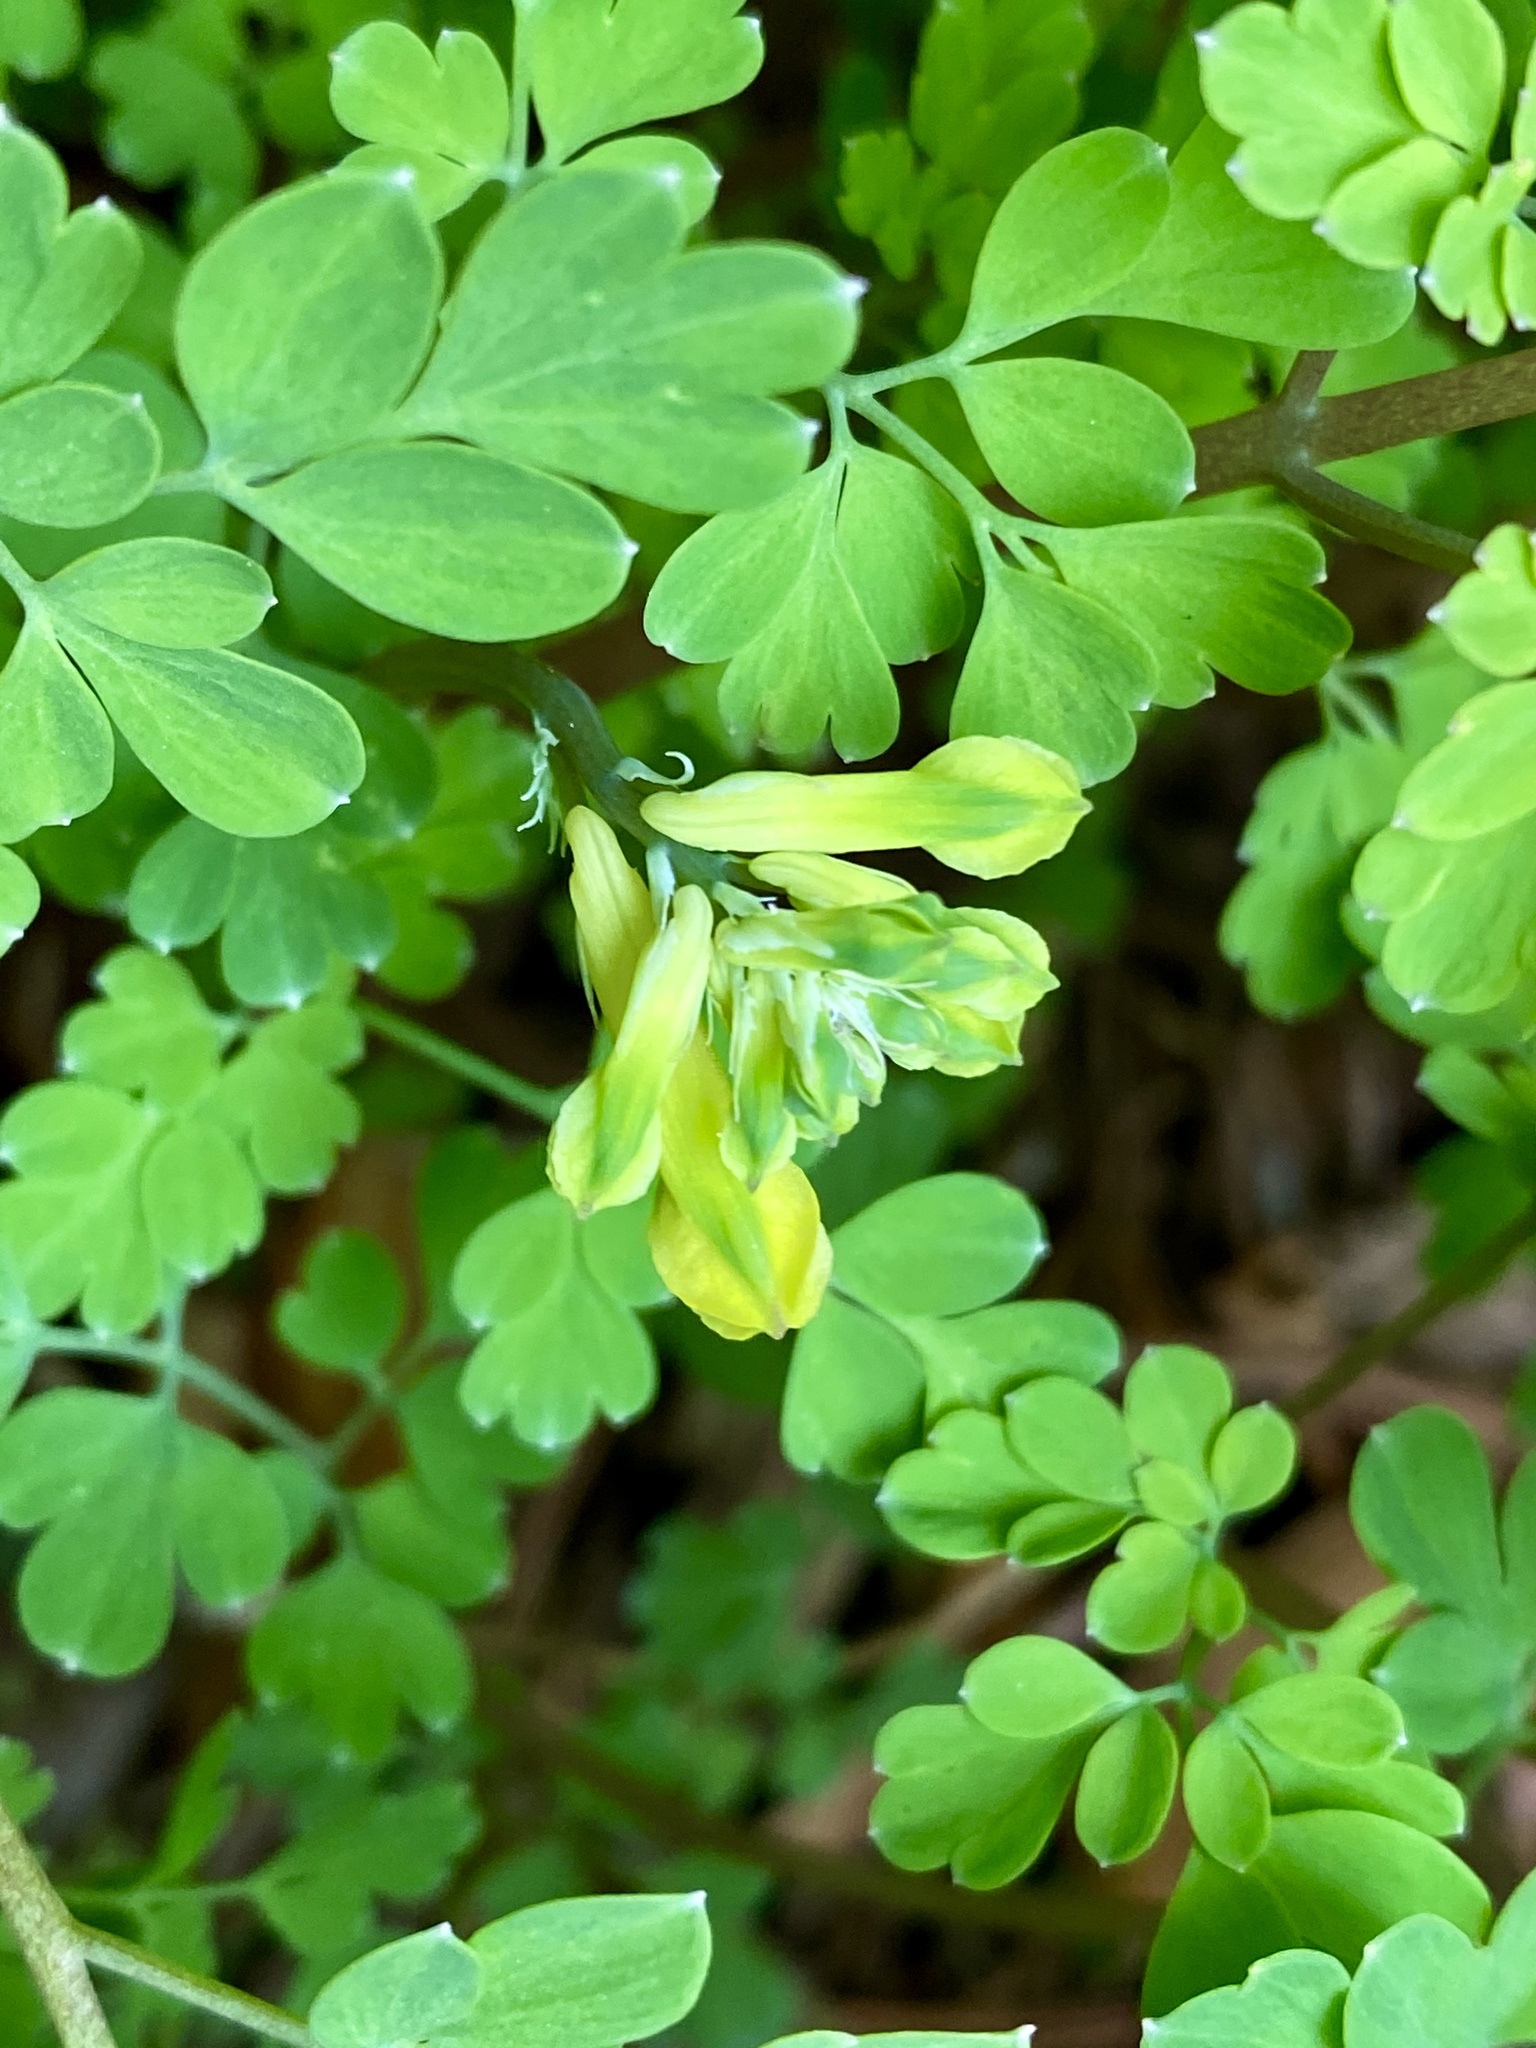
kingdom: Plantae
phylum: Tracheophyta
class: Magnoliopsida
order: Ranunculales
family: Papaveraceae
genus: Pseudofumaria
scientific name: Pseudofumaria lutea
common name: Yellow corydalis
